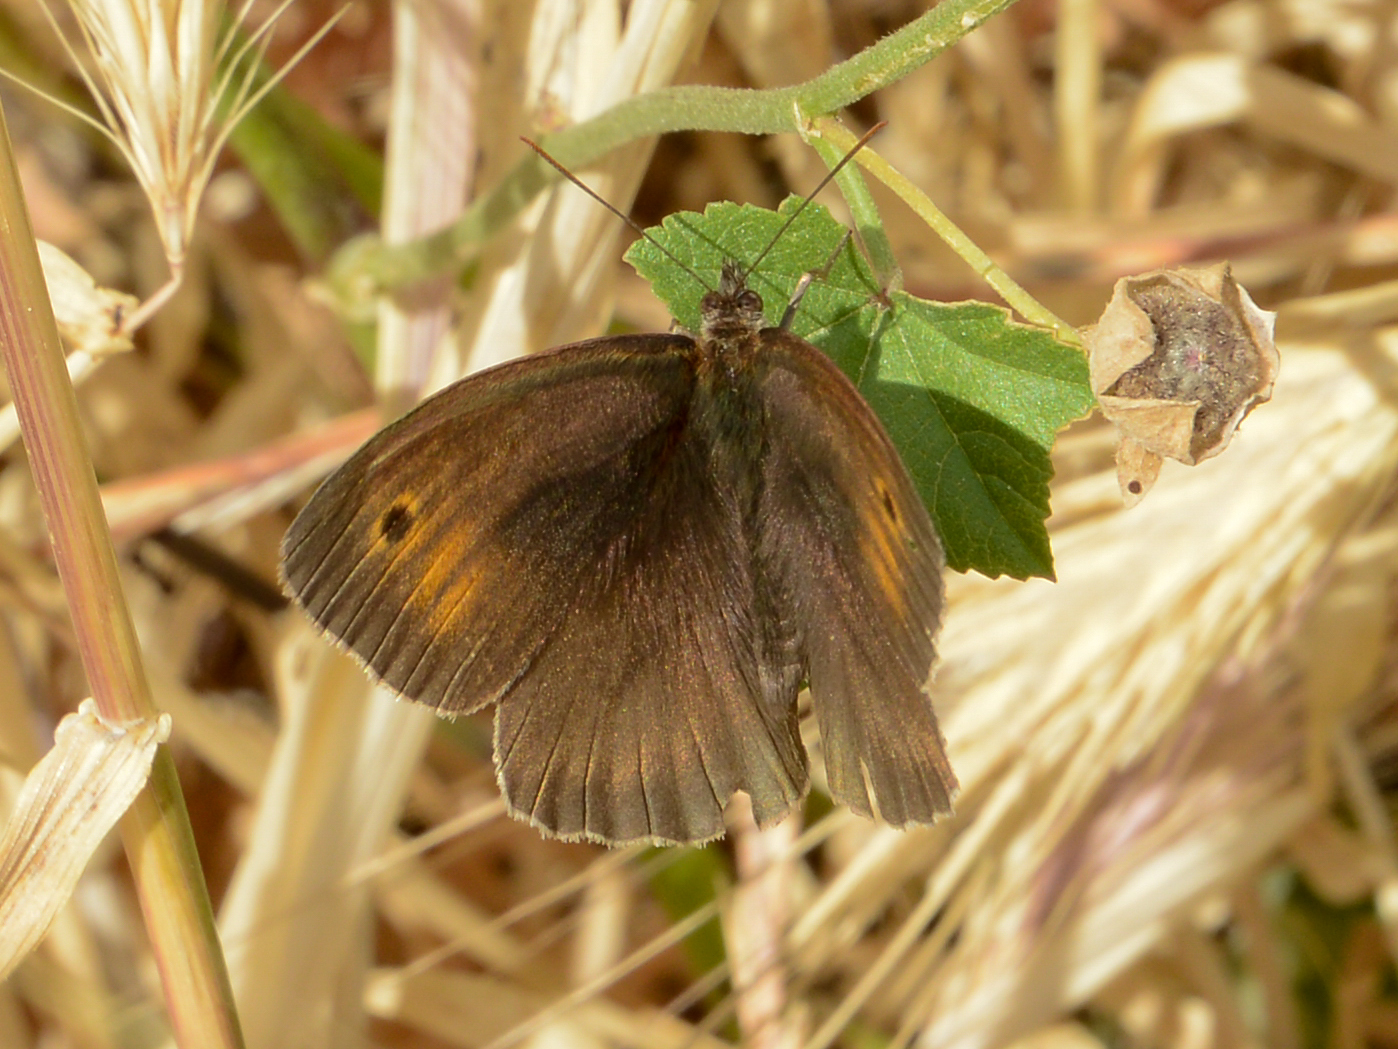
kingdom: Animalia
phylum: Arthropoda
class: Insecta
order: Lepidoptera
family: Nymphalidae
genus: Maniola
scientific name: Maniola jurtina
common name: Meadow brown
